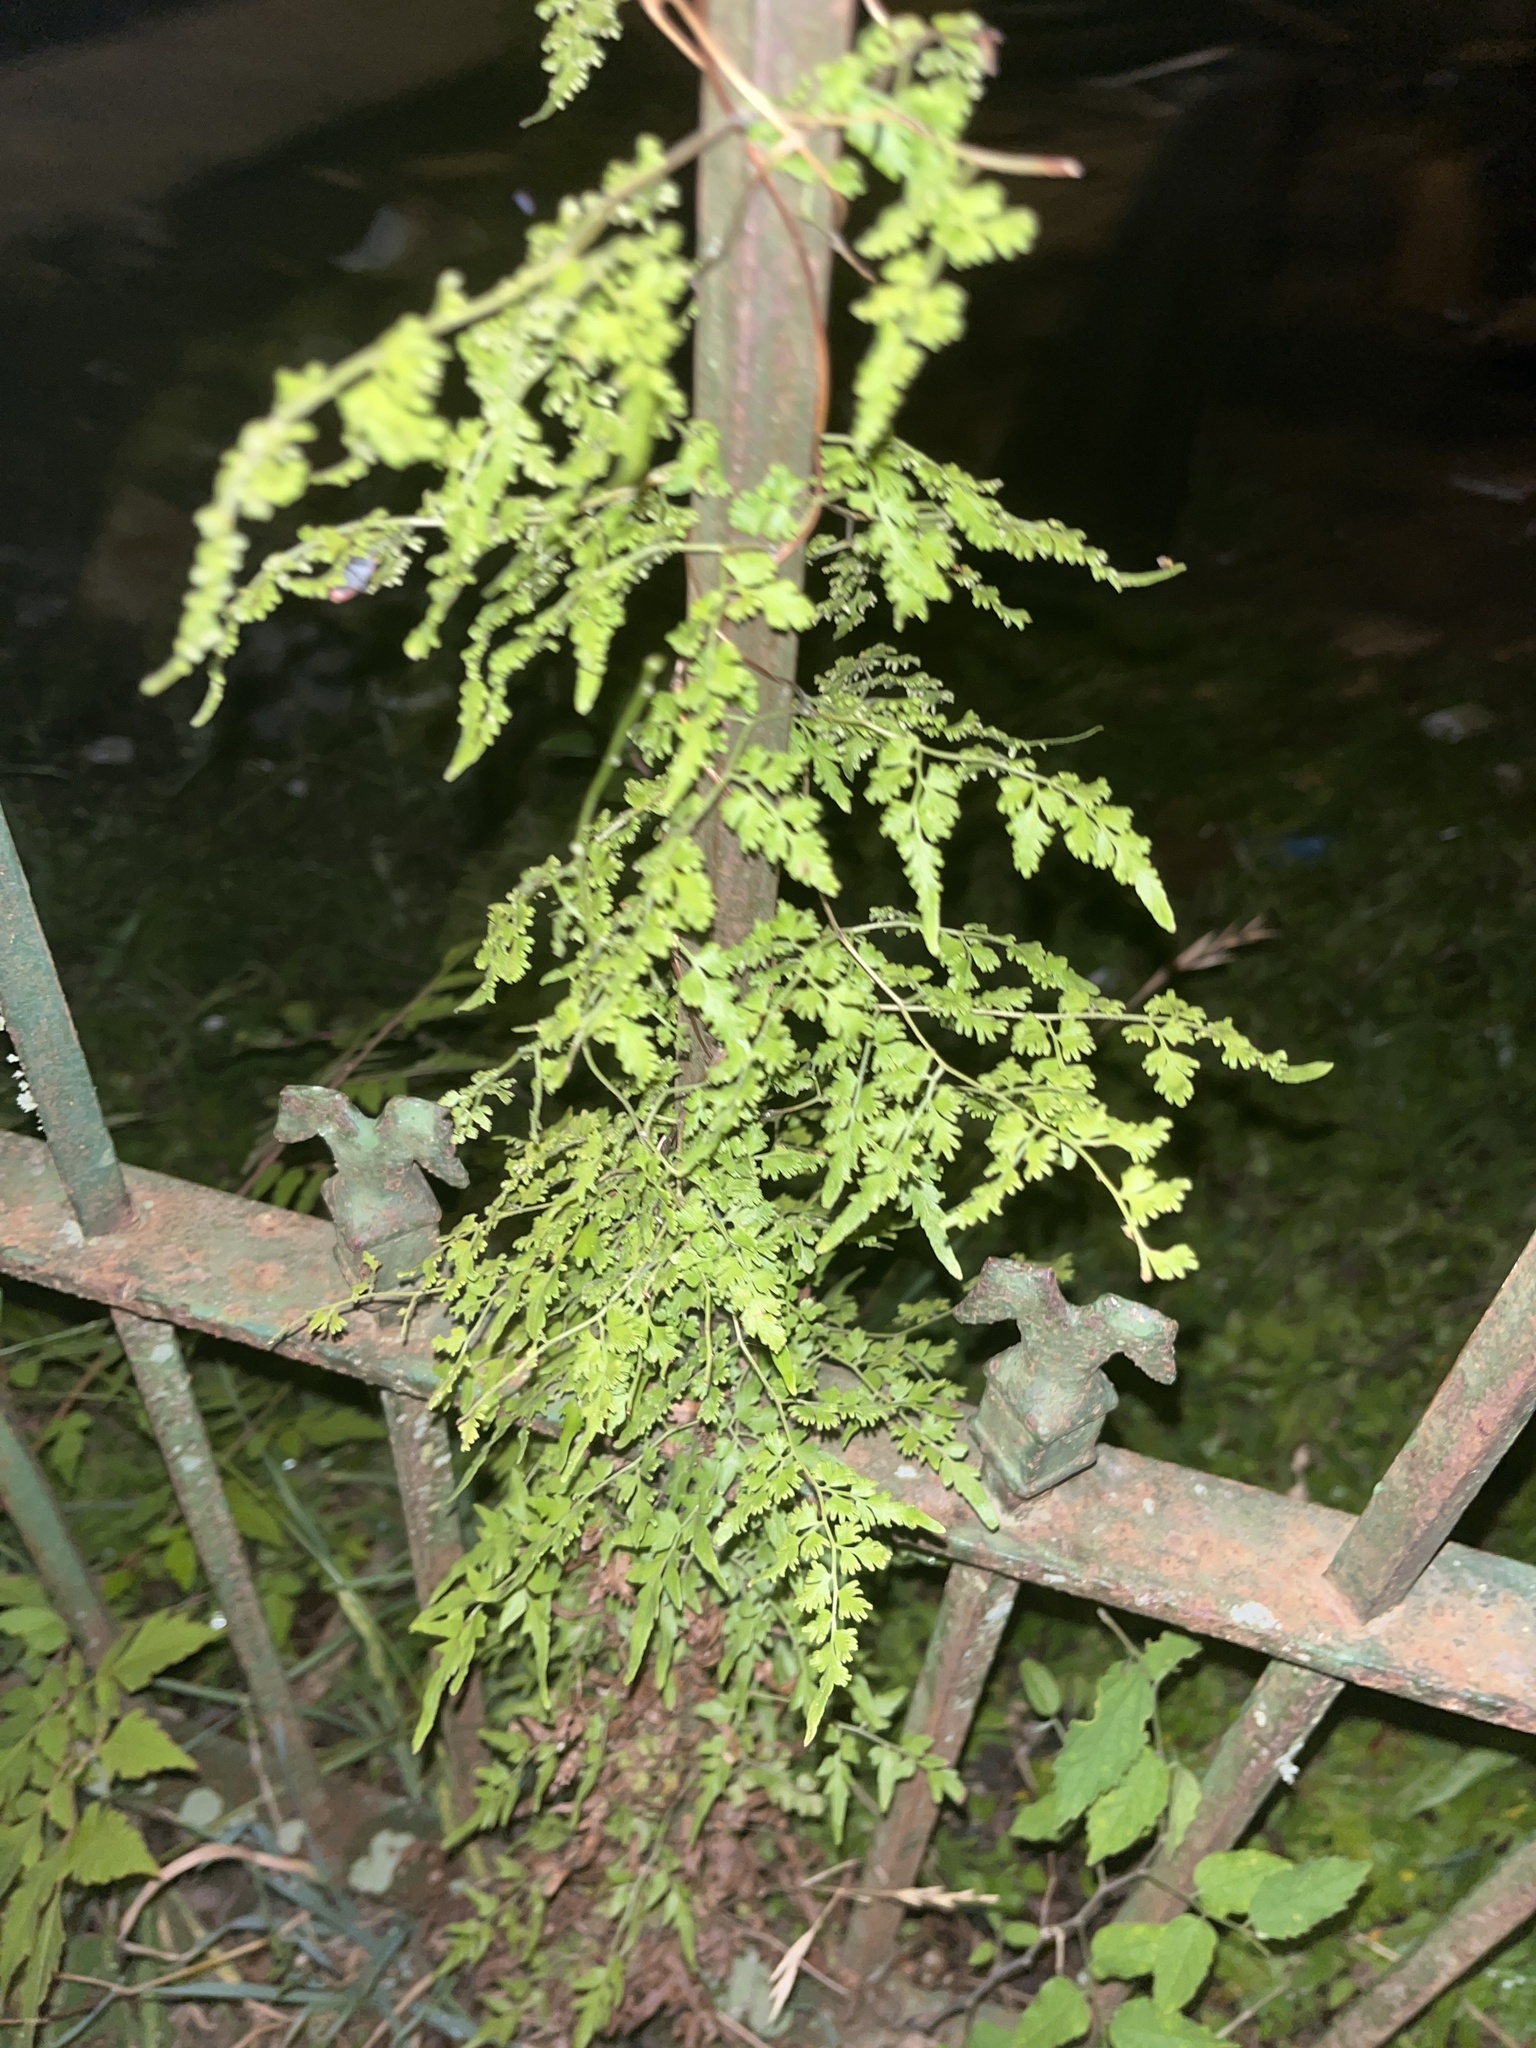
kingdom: Plantae
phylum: Tracheophyta
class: Polypodiopsida
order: Schizaeales
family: Lygodiaceae
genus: Lygodium
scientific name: Lygodium japonicum
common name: Japanese climbing fern
